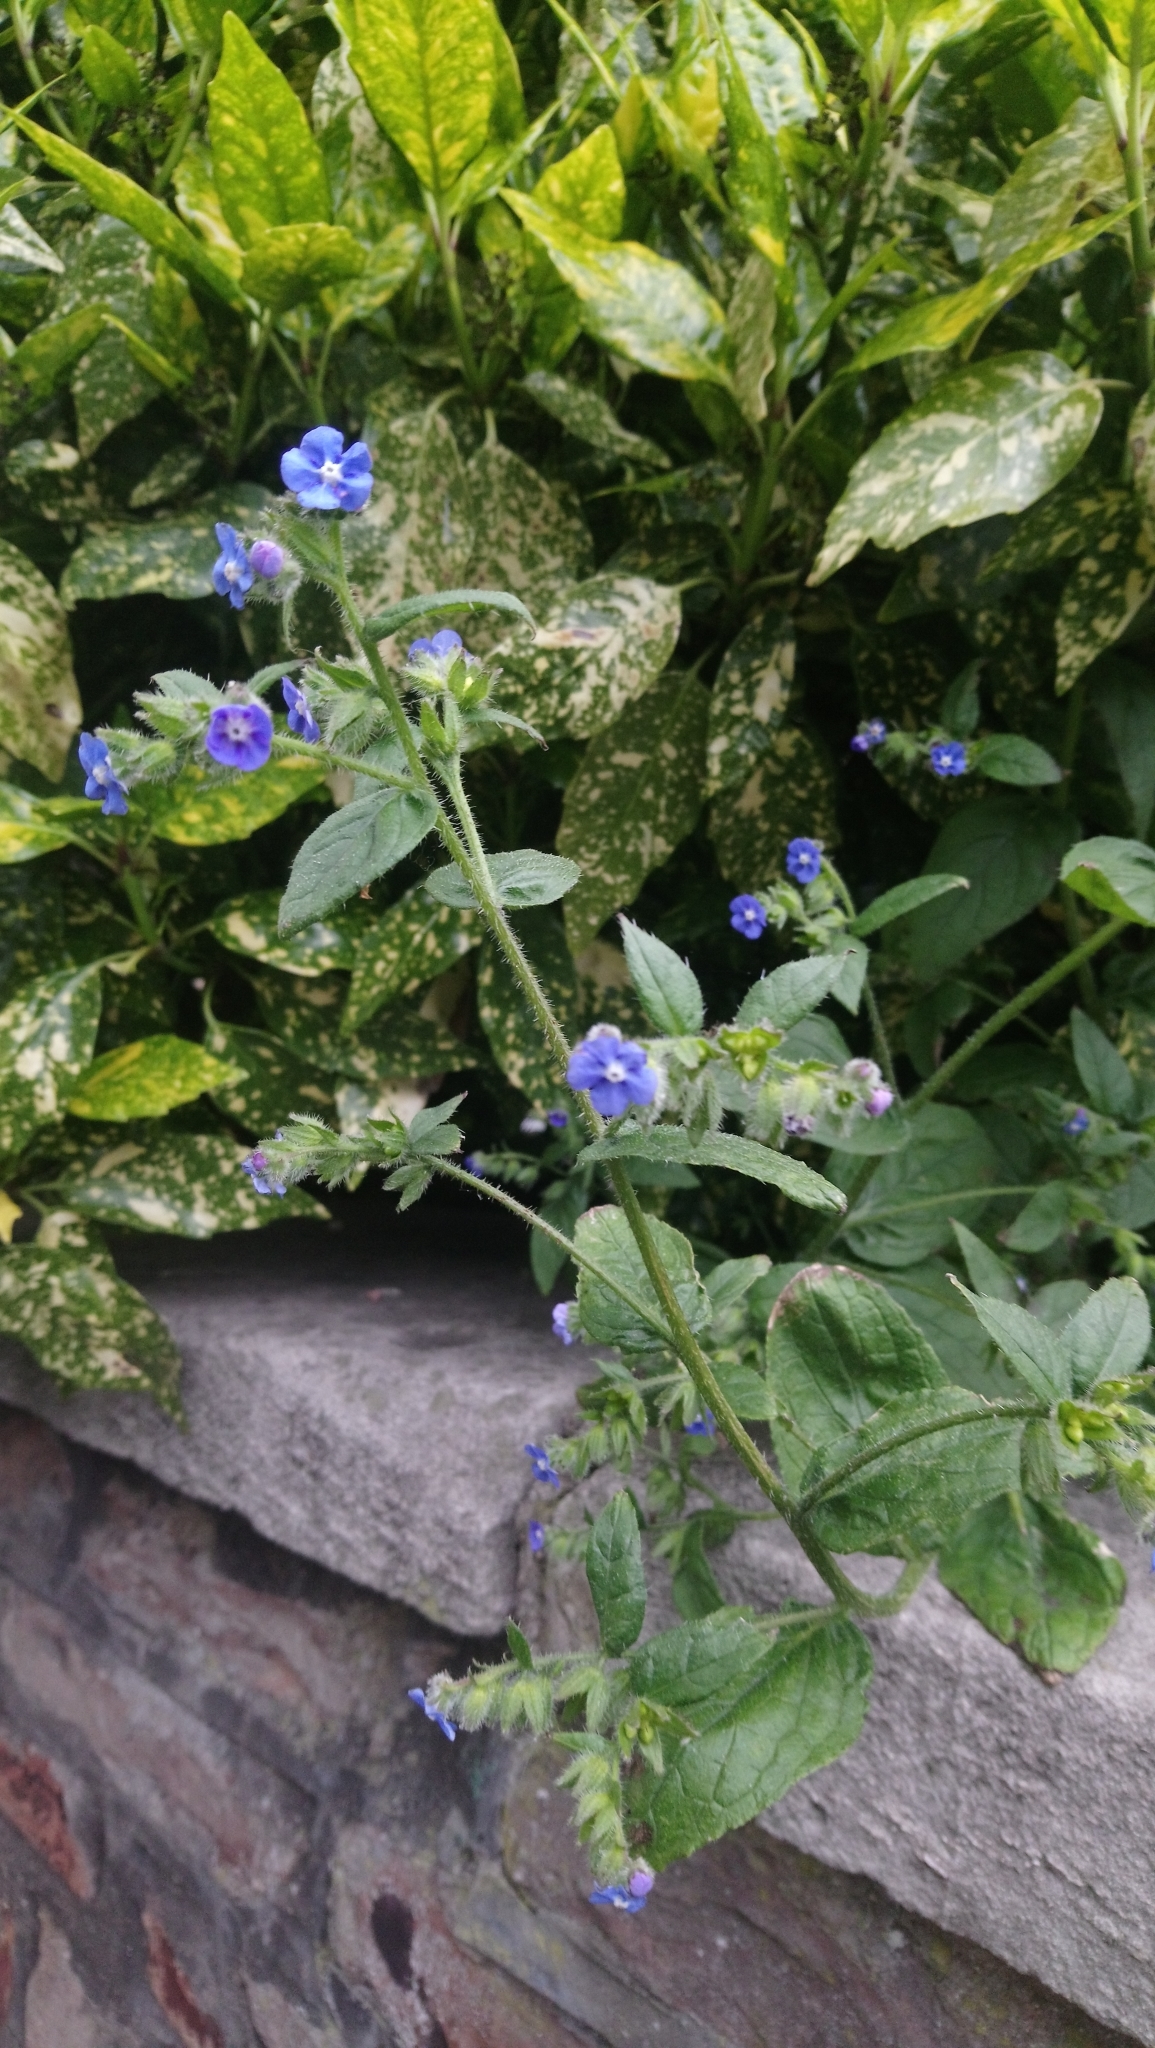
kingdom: Plantae
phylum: Tracheophyta
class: Magnoliopsida
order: Boraginales
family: Boraginaceae
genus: Pentaglottis
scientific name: Pentaglottis sempervirens
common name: Green alkanet
